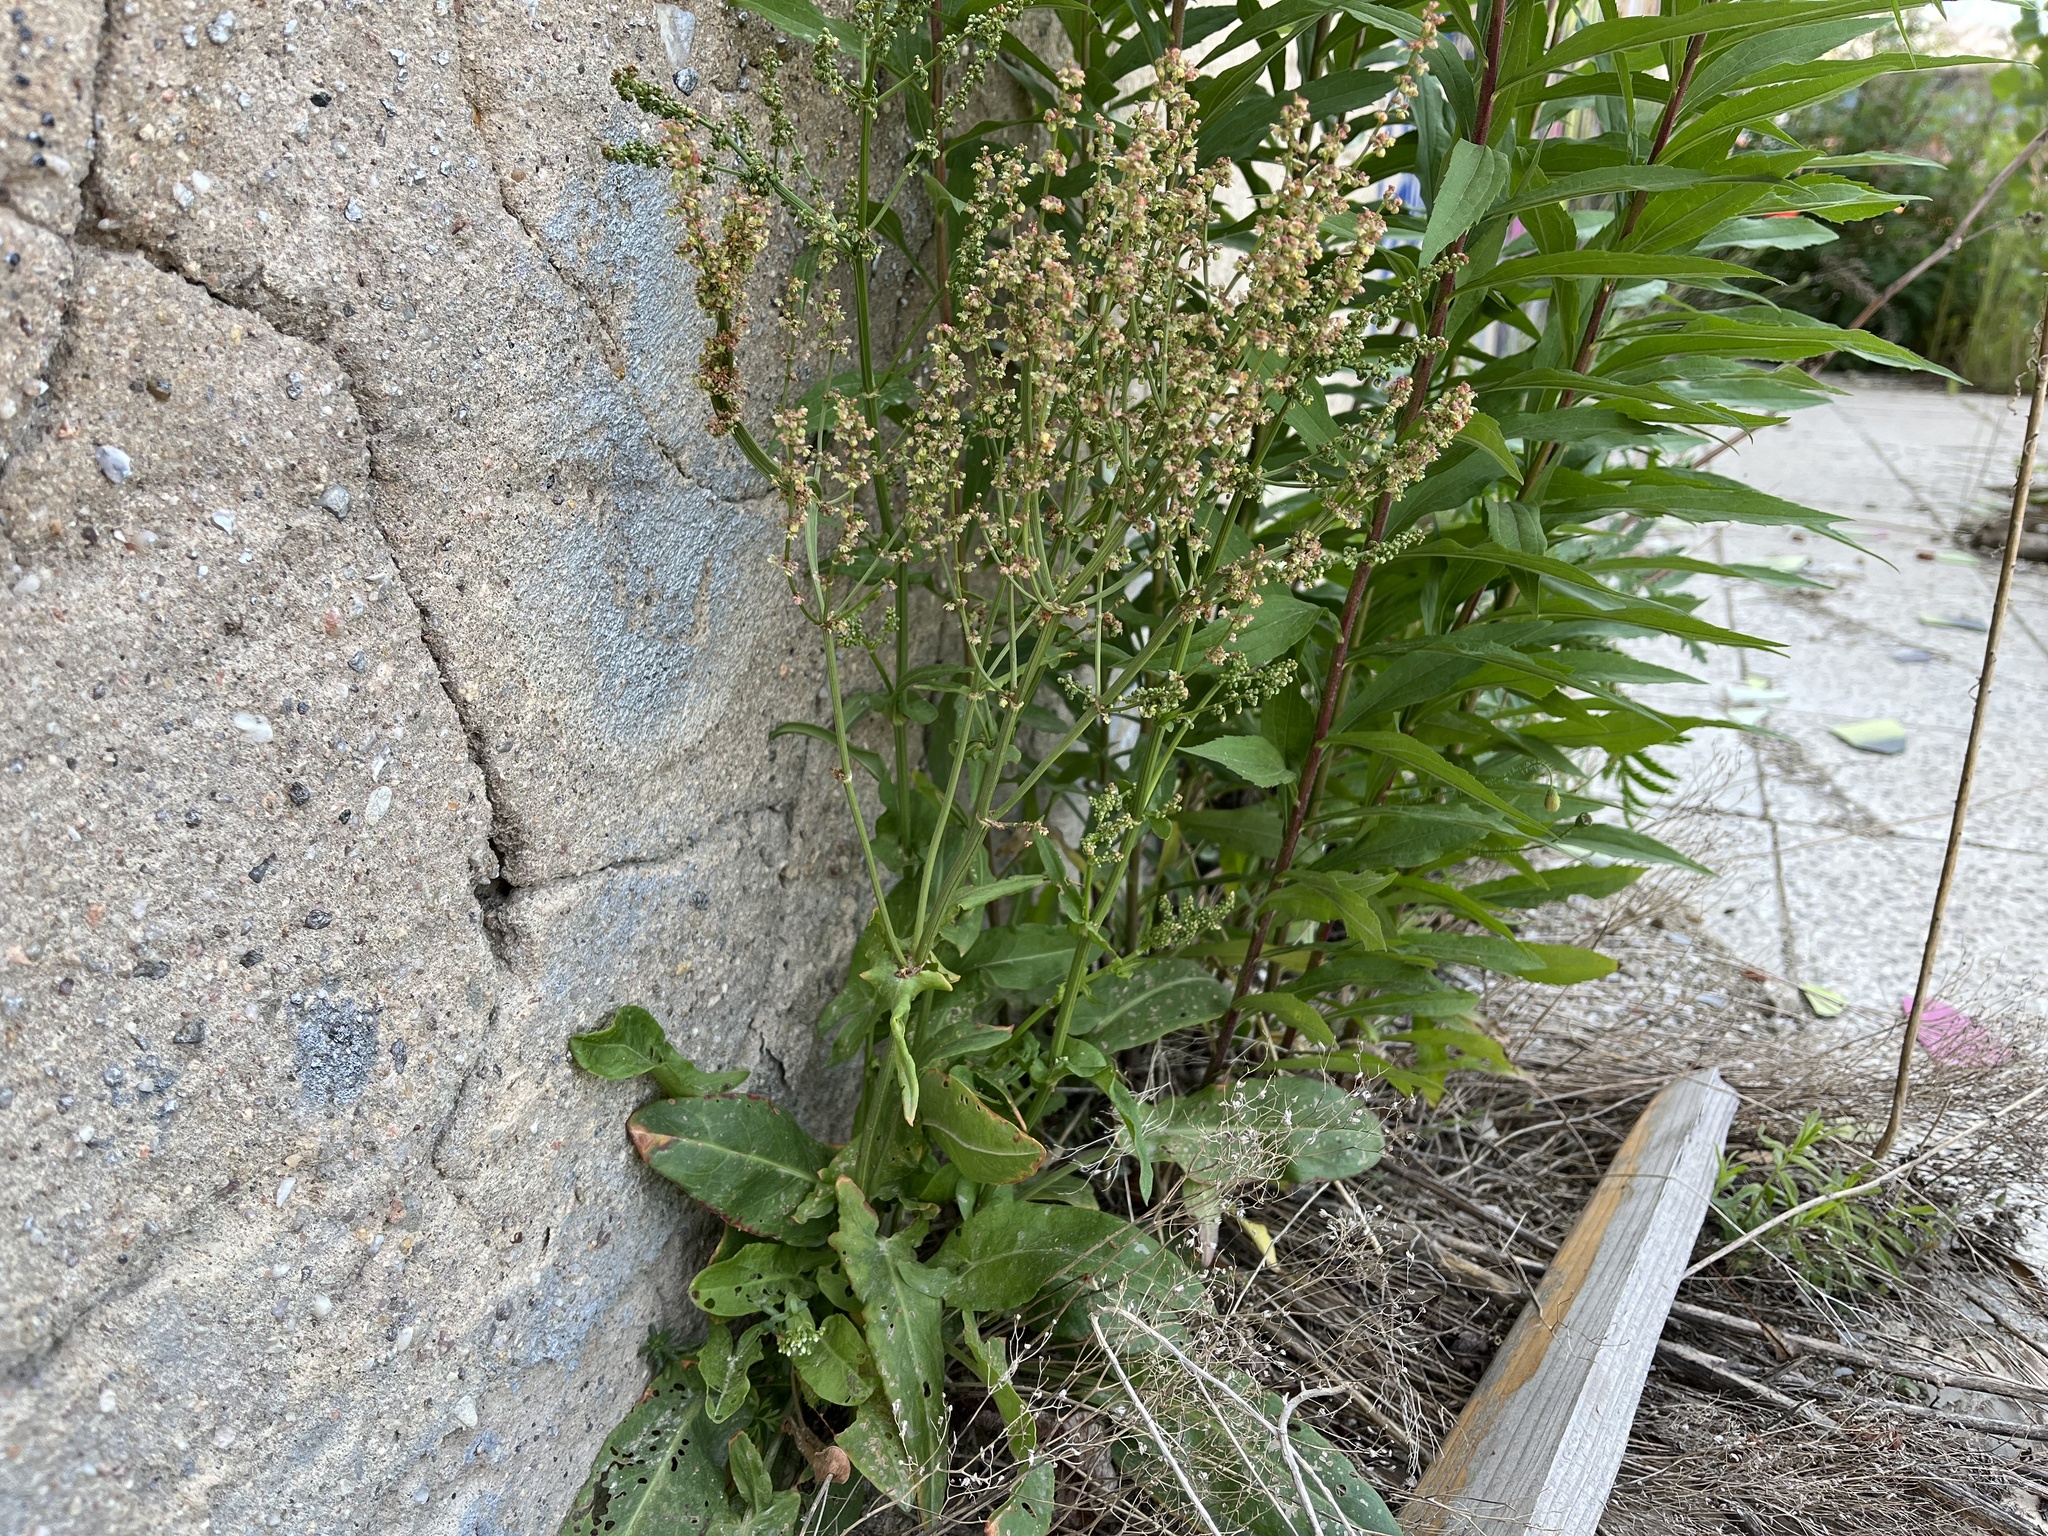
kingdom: Plantae
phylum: Tracheophyta
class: Magnoliopsida
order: Caryophyllales
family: Polygonaceae
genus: Rumex
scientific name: Rumex thyrsiflorus
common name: Garden sorrel
